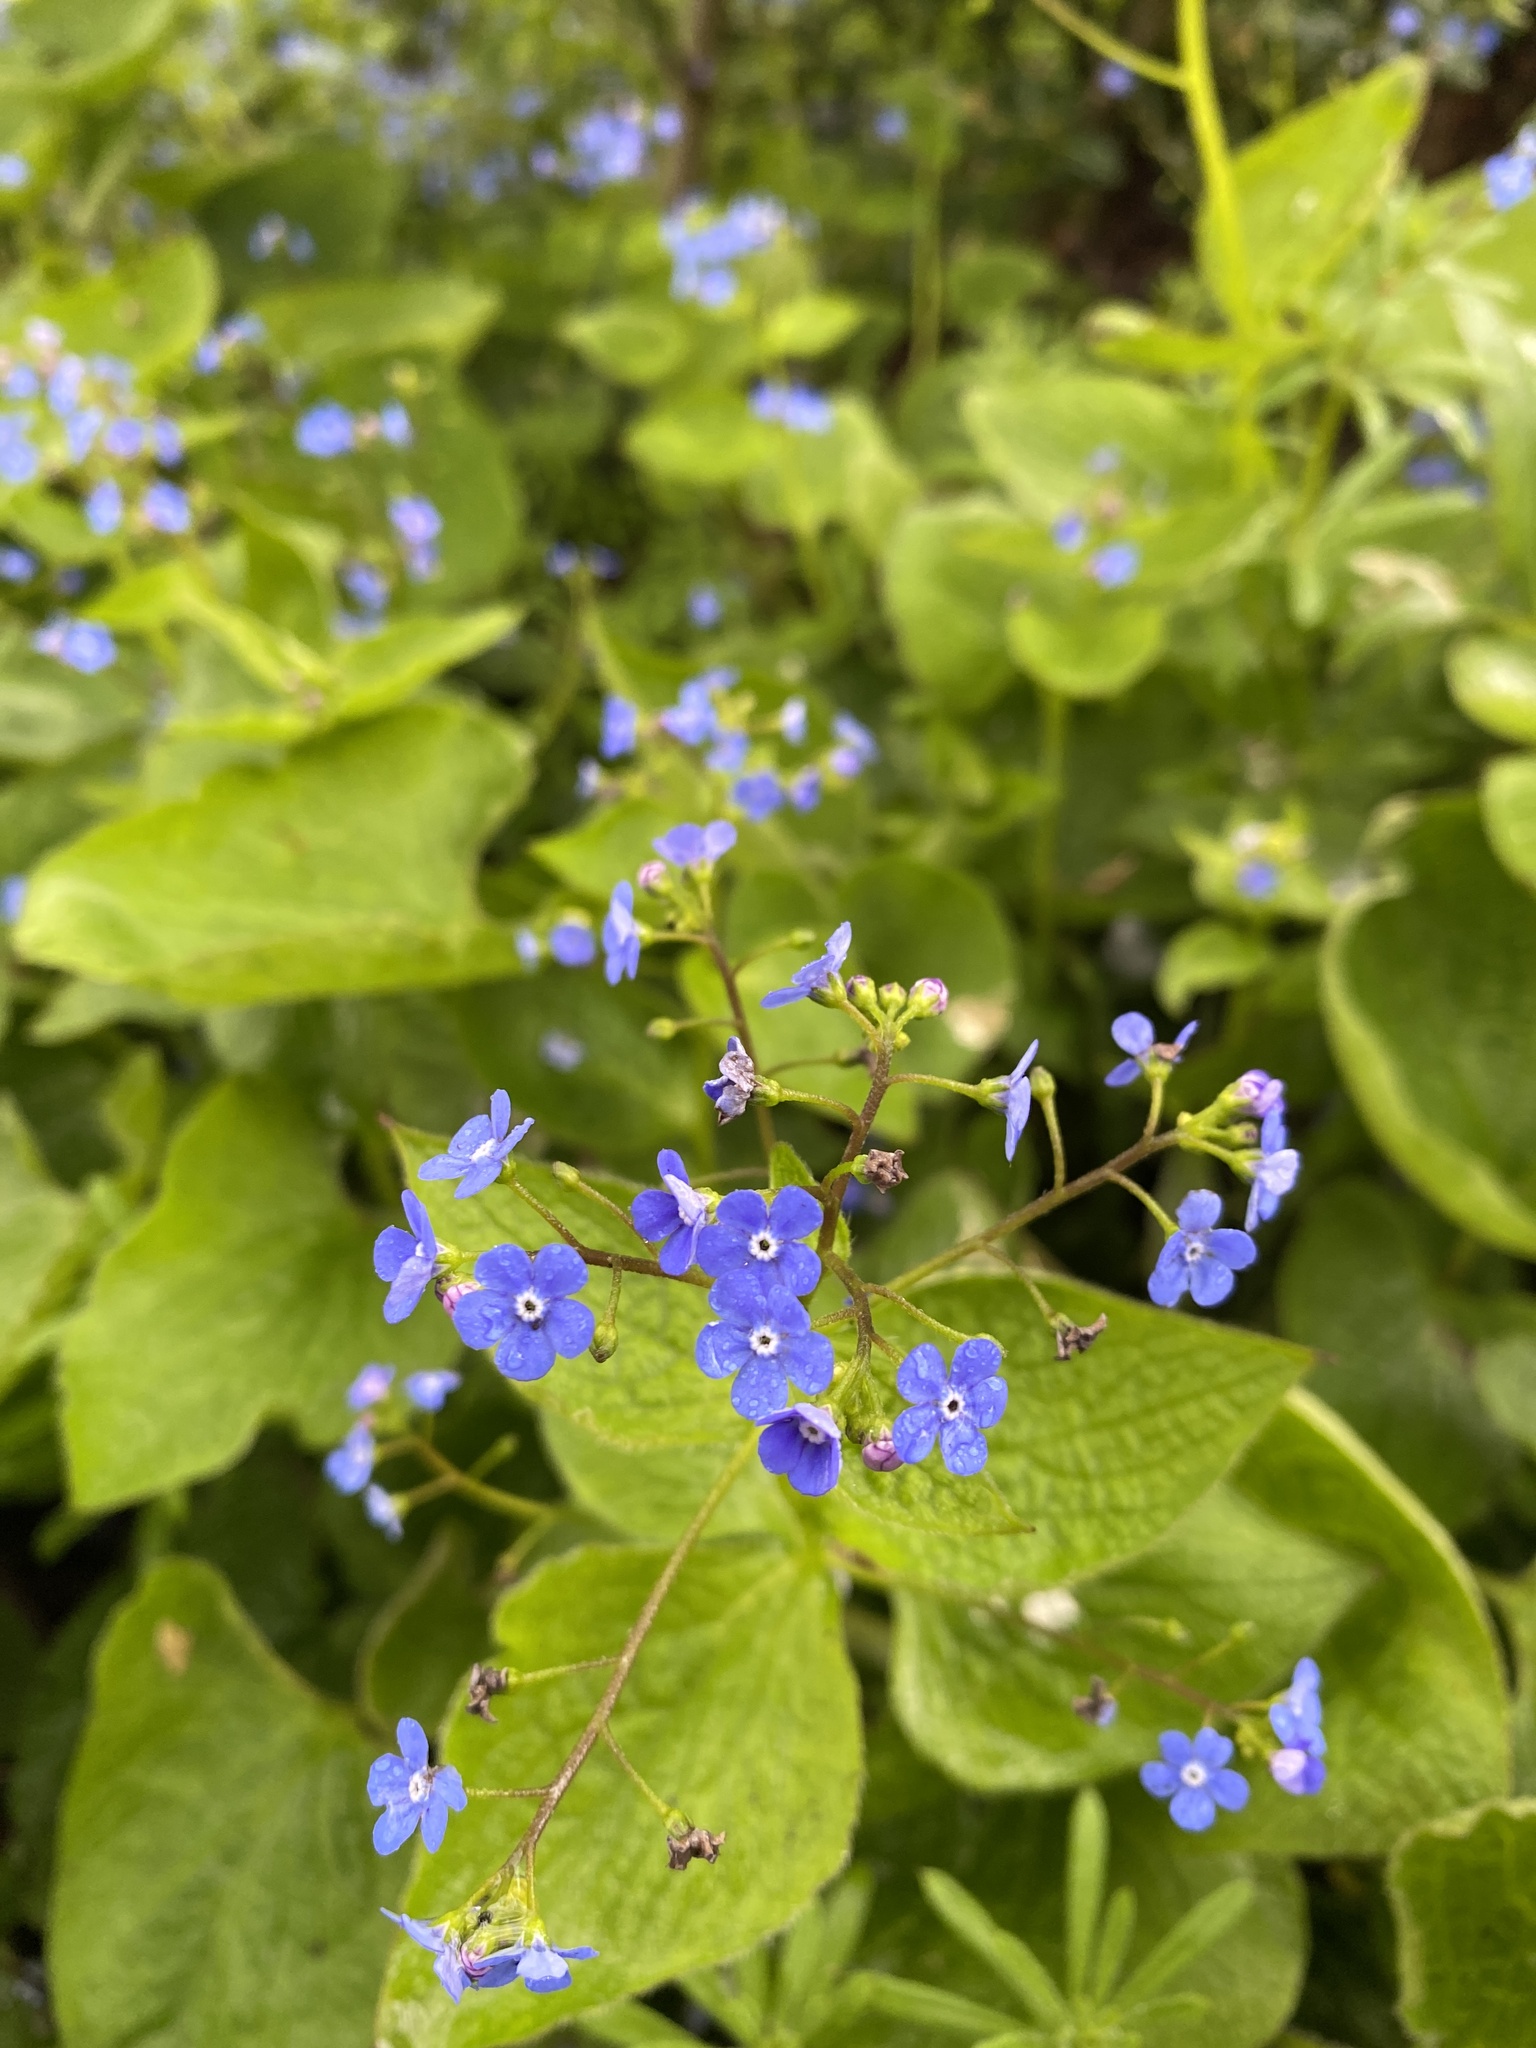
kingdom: Plantae
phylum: Tracheophyta
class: Magnoliopsida
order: Boraginales
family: Boraginaceae
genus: Brunnera
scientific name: Brunnera macrophylla
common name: Great forget-me-not
